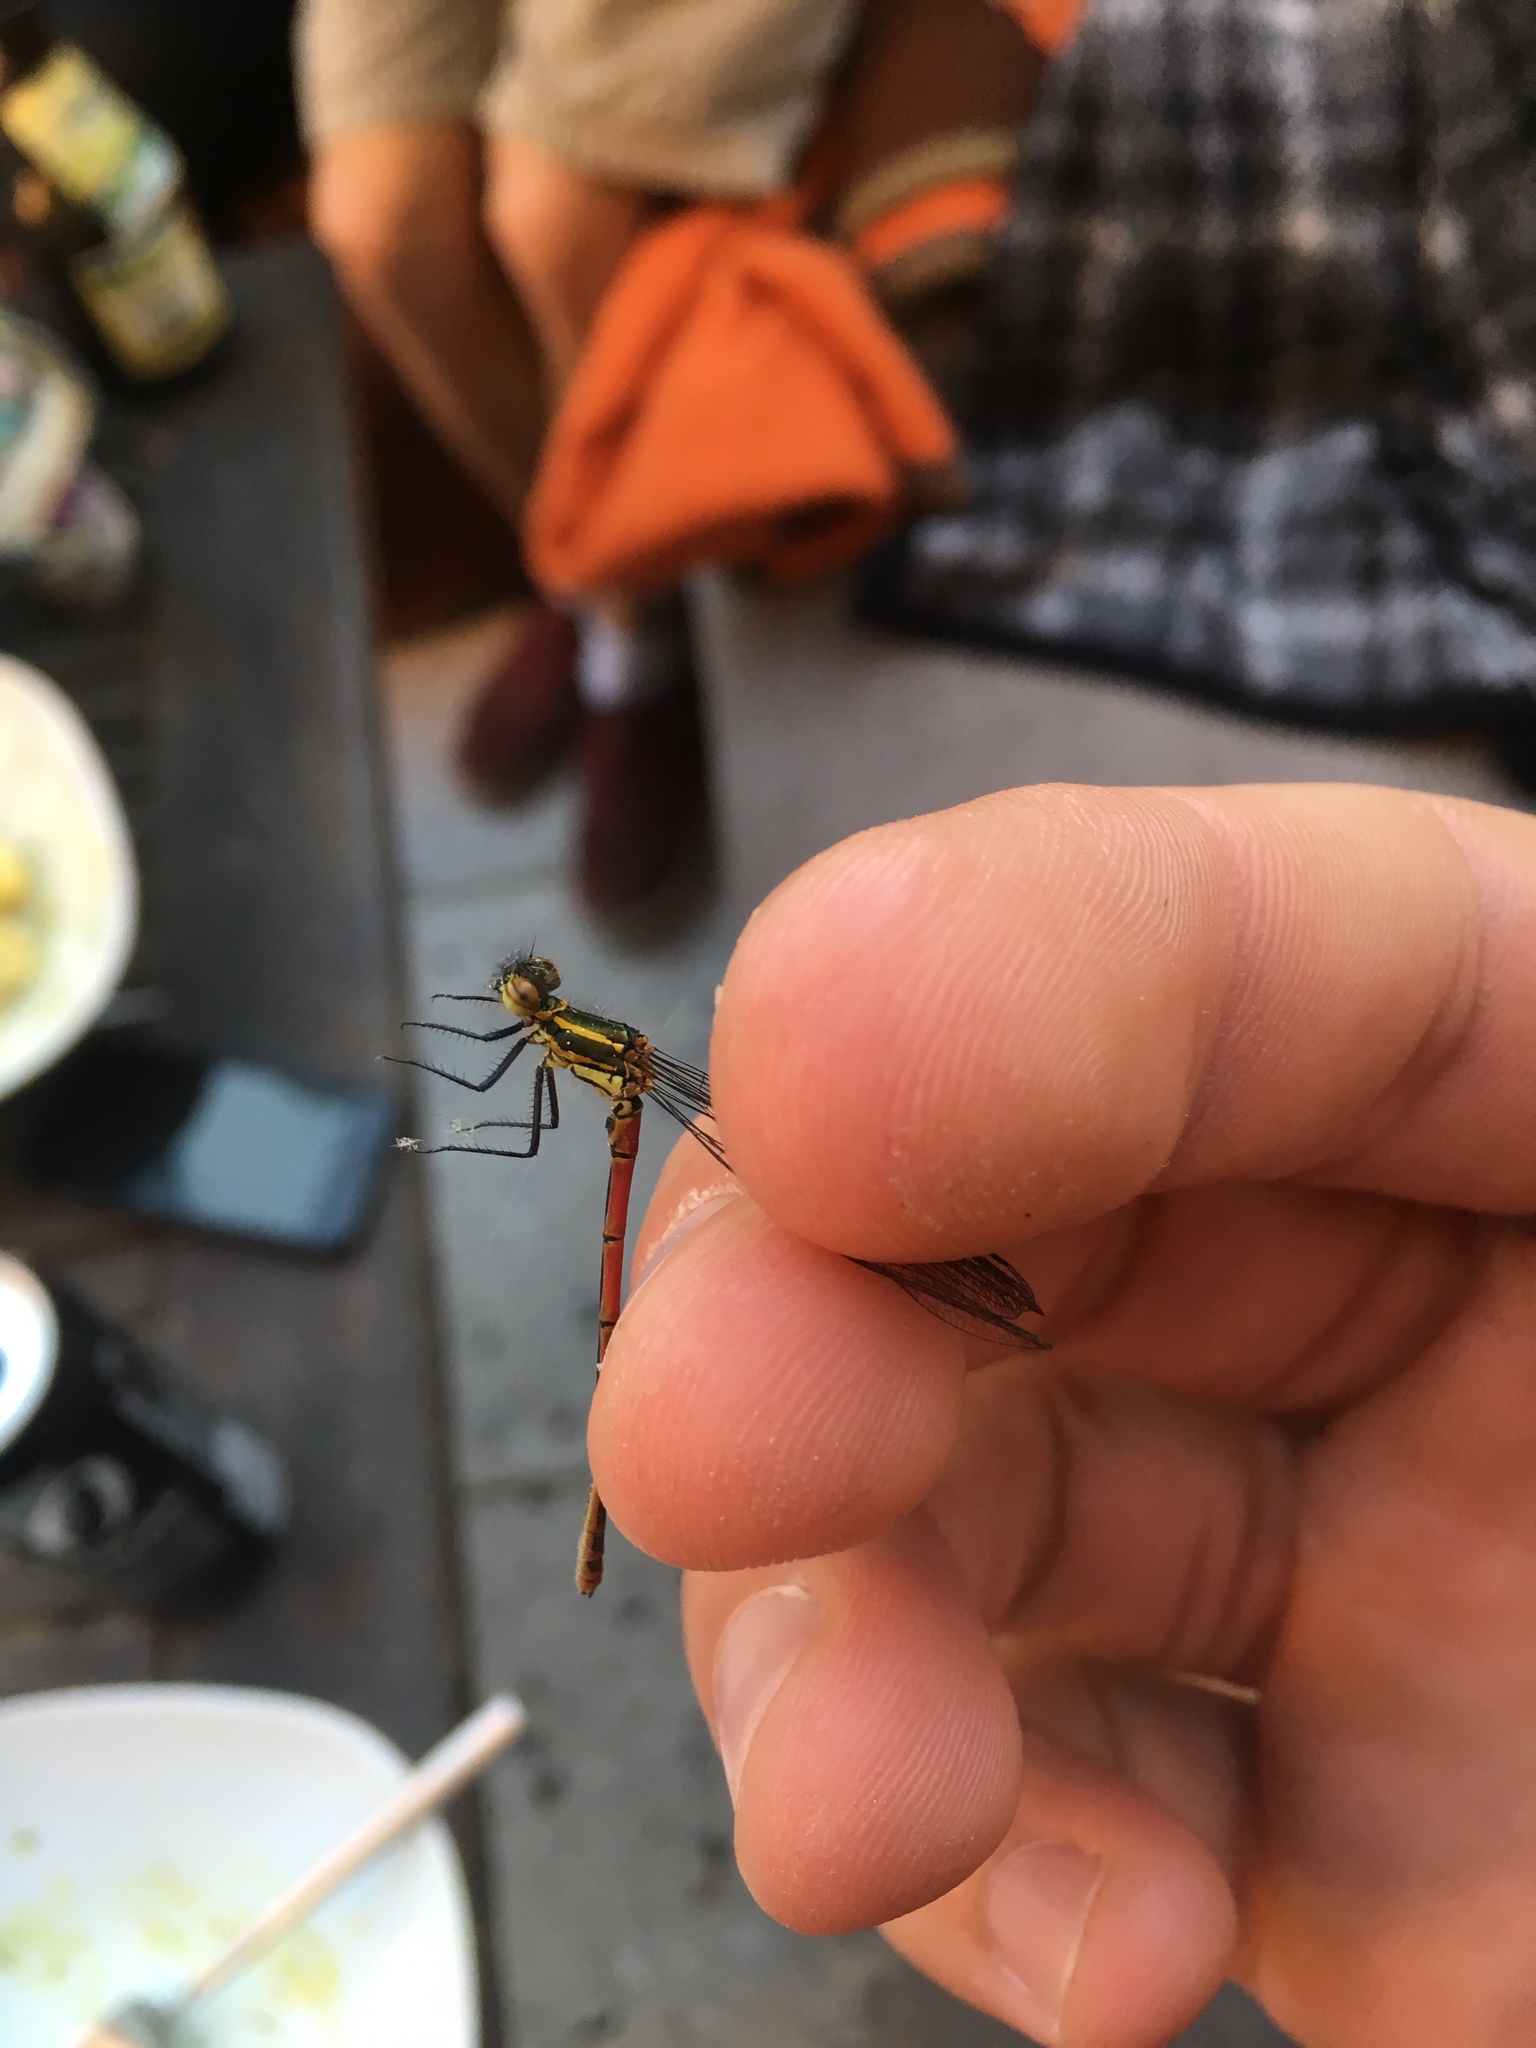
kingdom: Animalia
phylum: Arthropoda
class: Insecta
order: Odonata
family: Coenagrionidae
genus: Pyrrhosoma
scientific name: Pyrrhosoma nymphula
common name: Large red damsel
